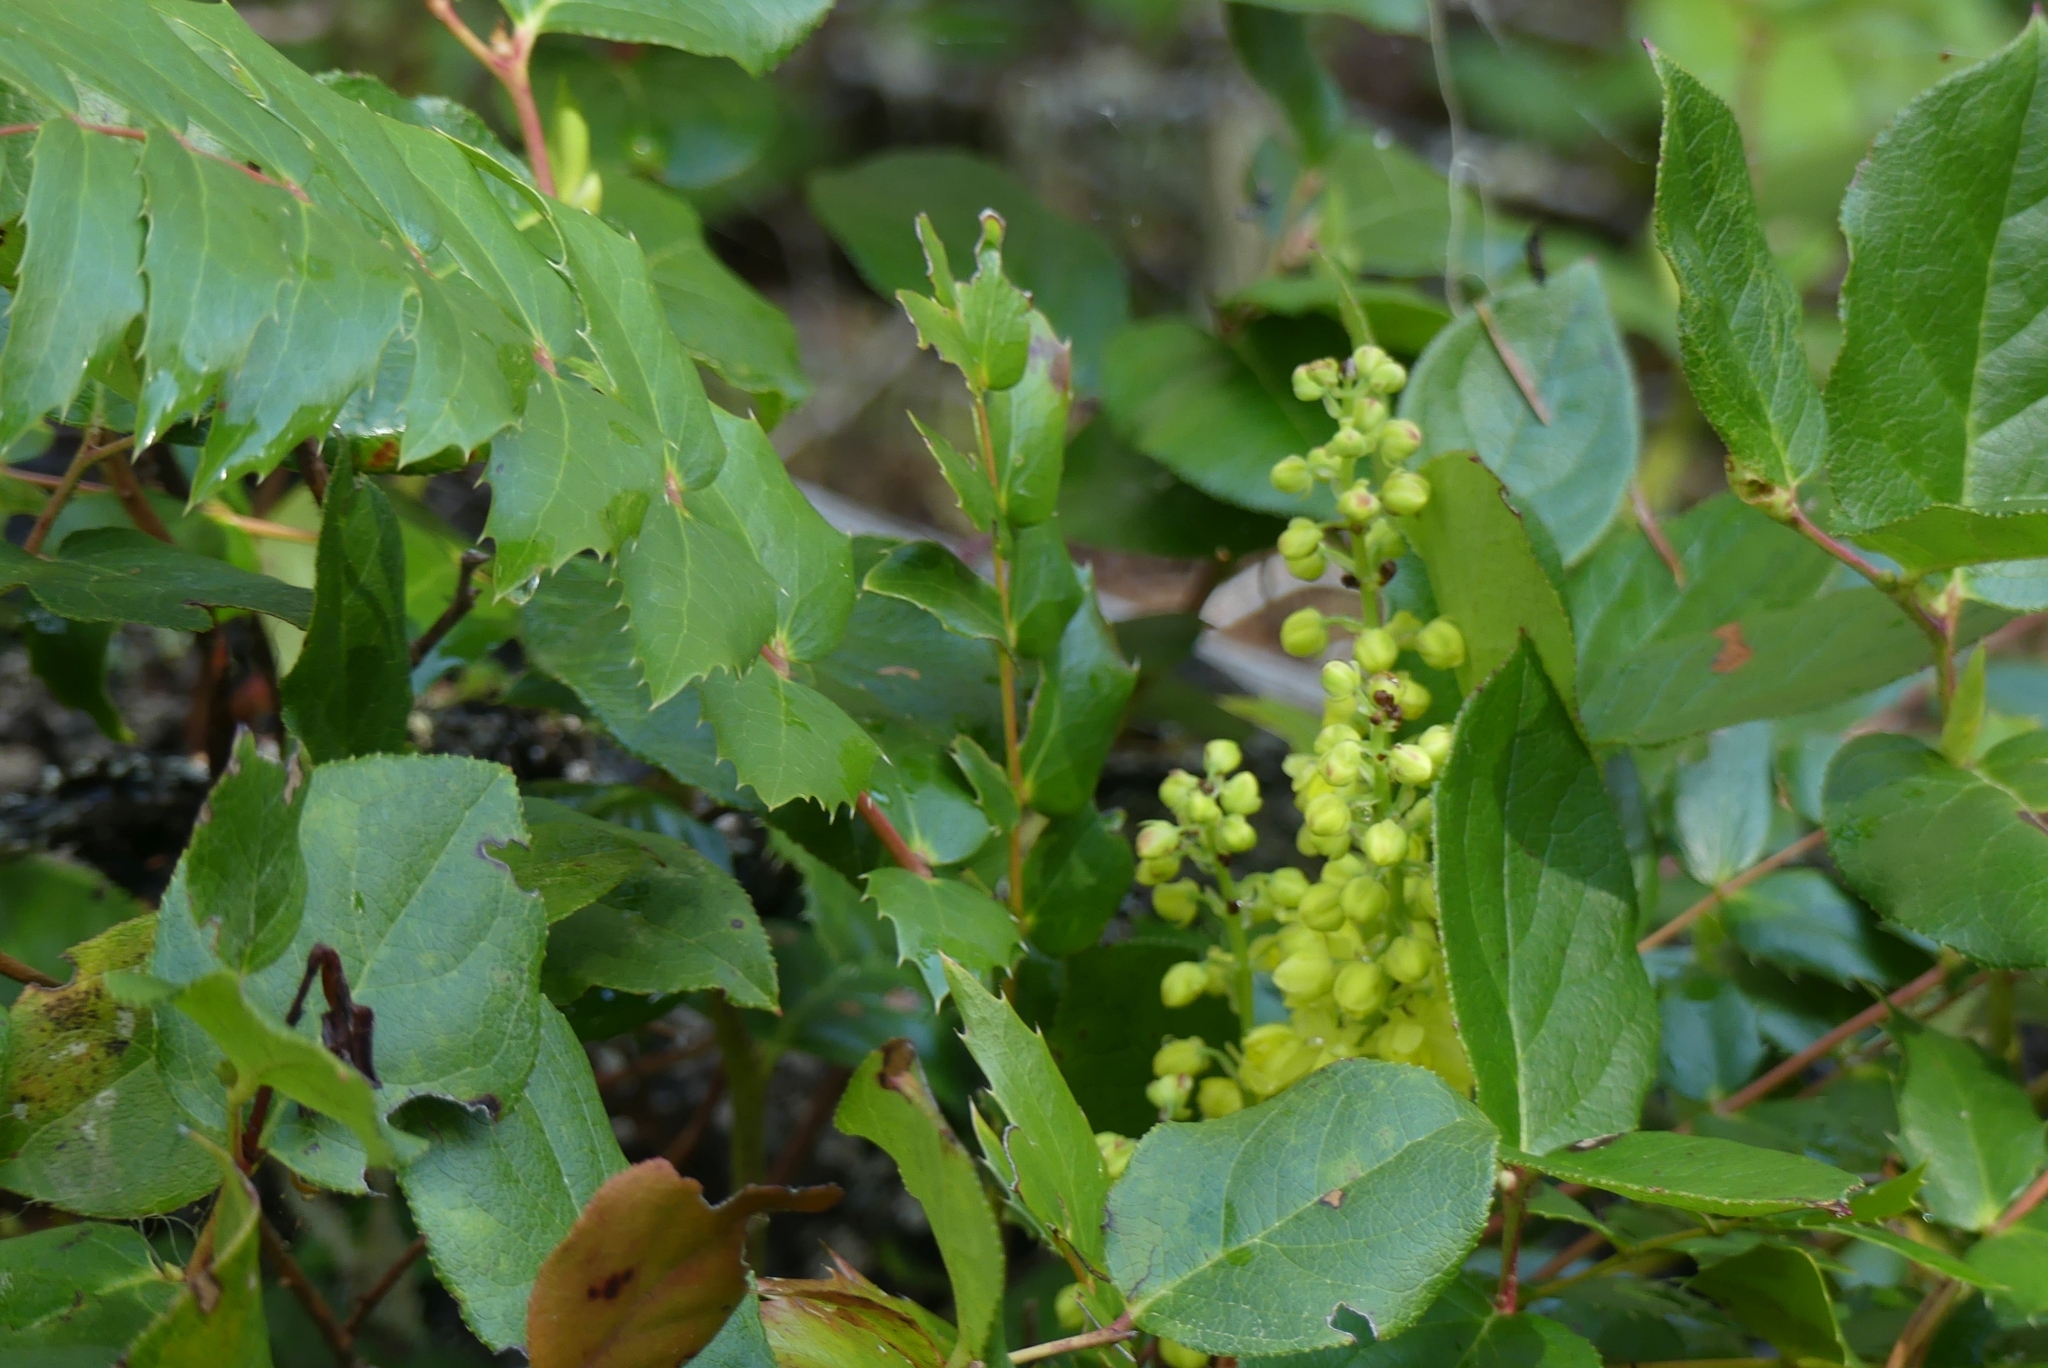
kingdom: Plantae
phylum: Tracheophyta
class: Magnoliopsida
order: Ranunculales
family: Berberidaceae
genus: Mahonia
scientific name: Mahonia nervosa
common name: Cascade oregon-grape
